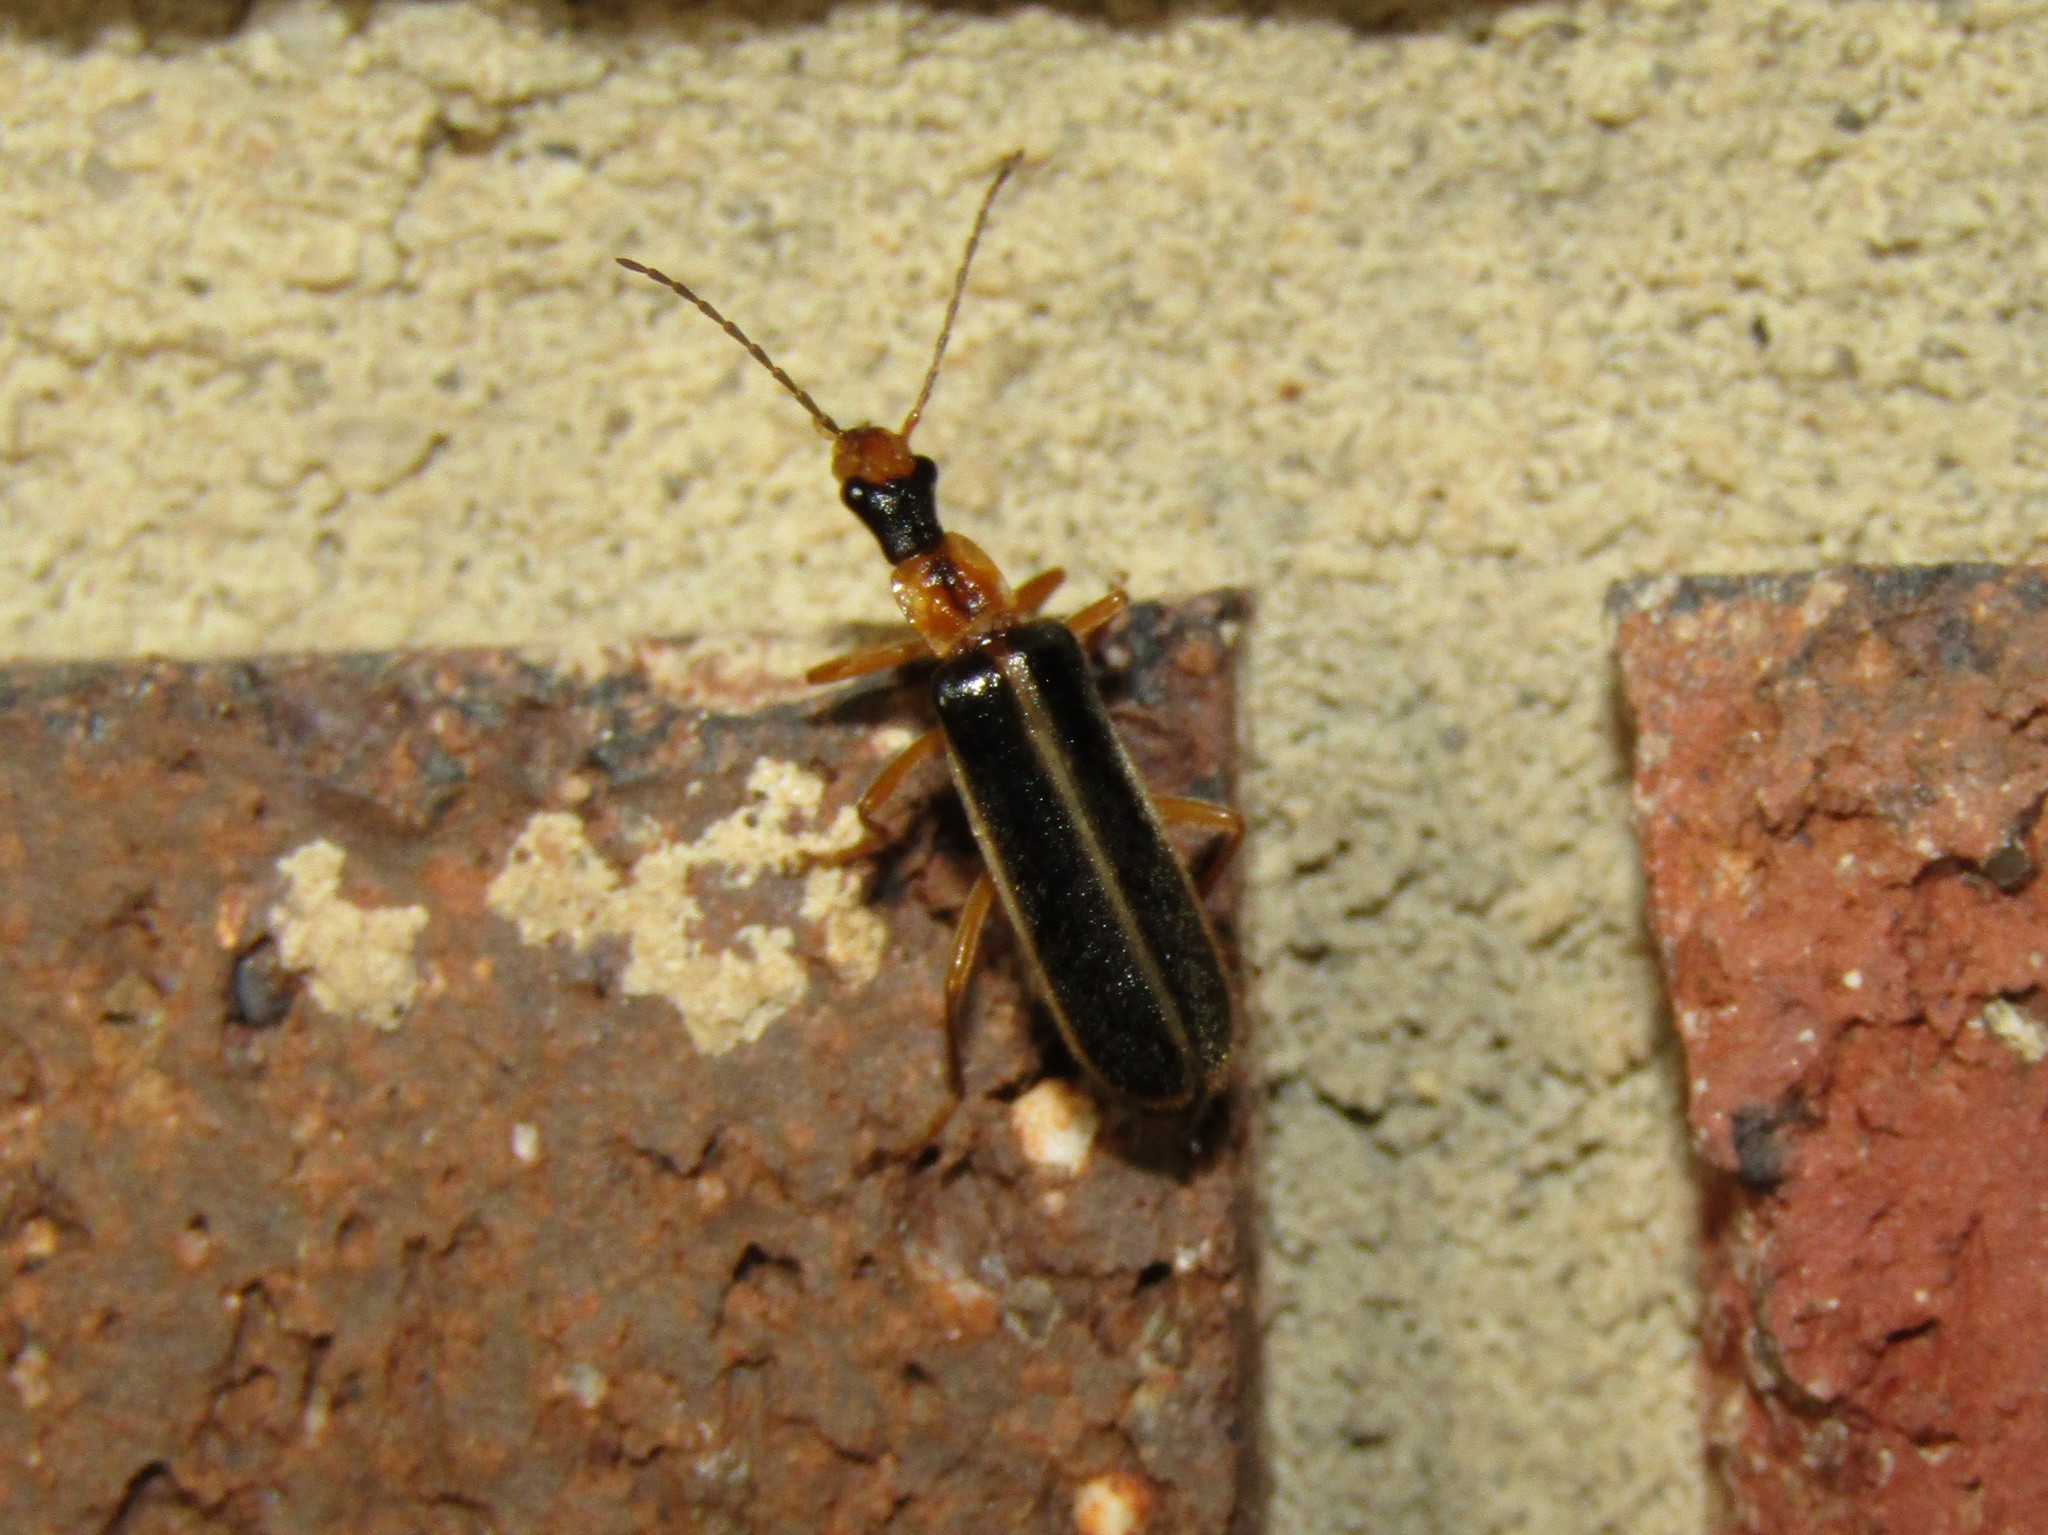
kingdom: Animalia
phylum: Arthropoda
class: Insecta
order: Coleoptera
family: Cantharidae
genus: Podabrus
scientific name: Podabrus brunnicollis
